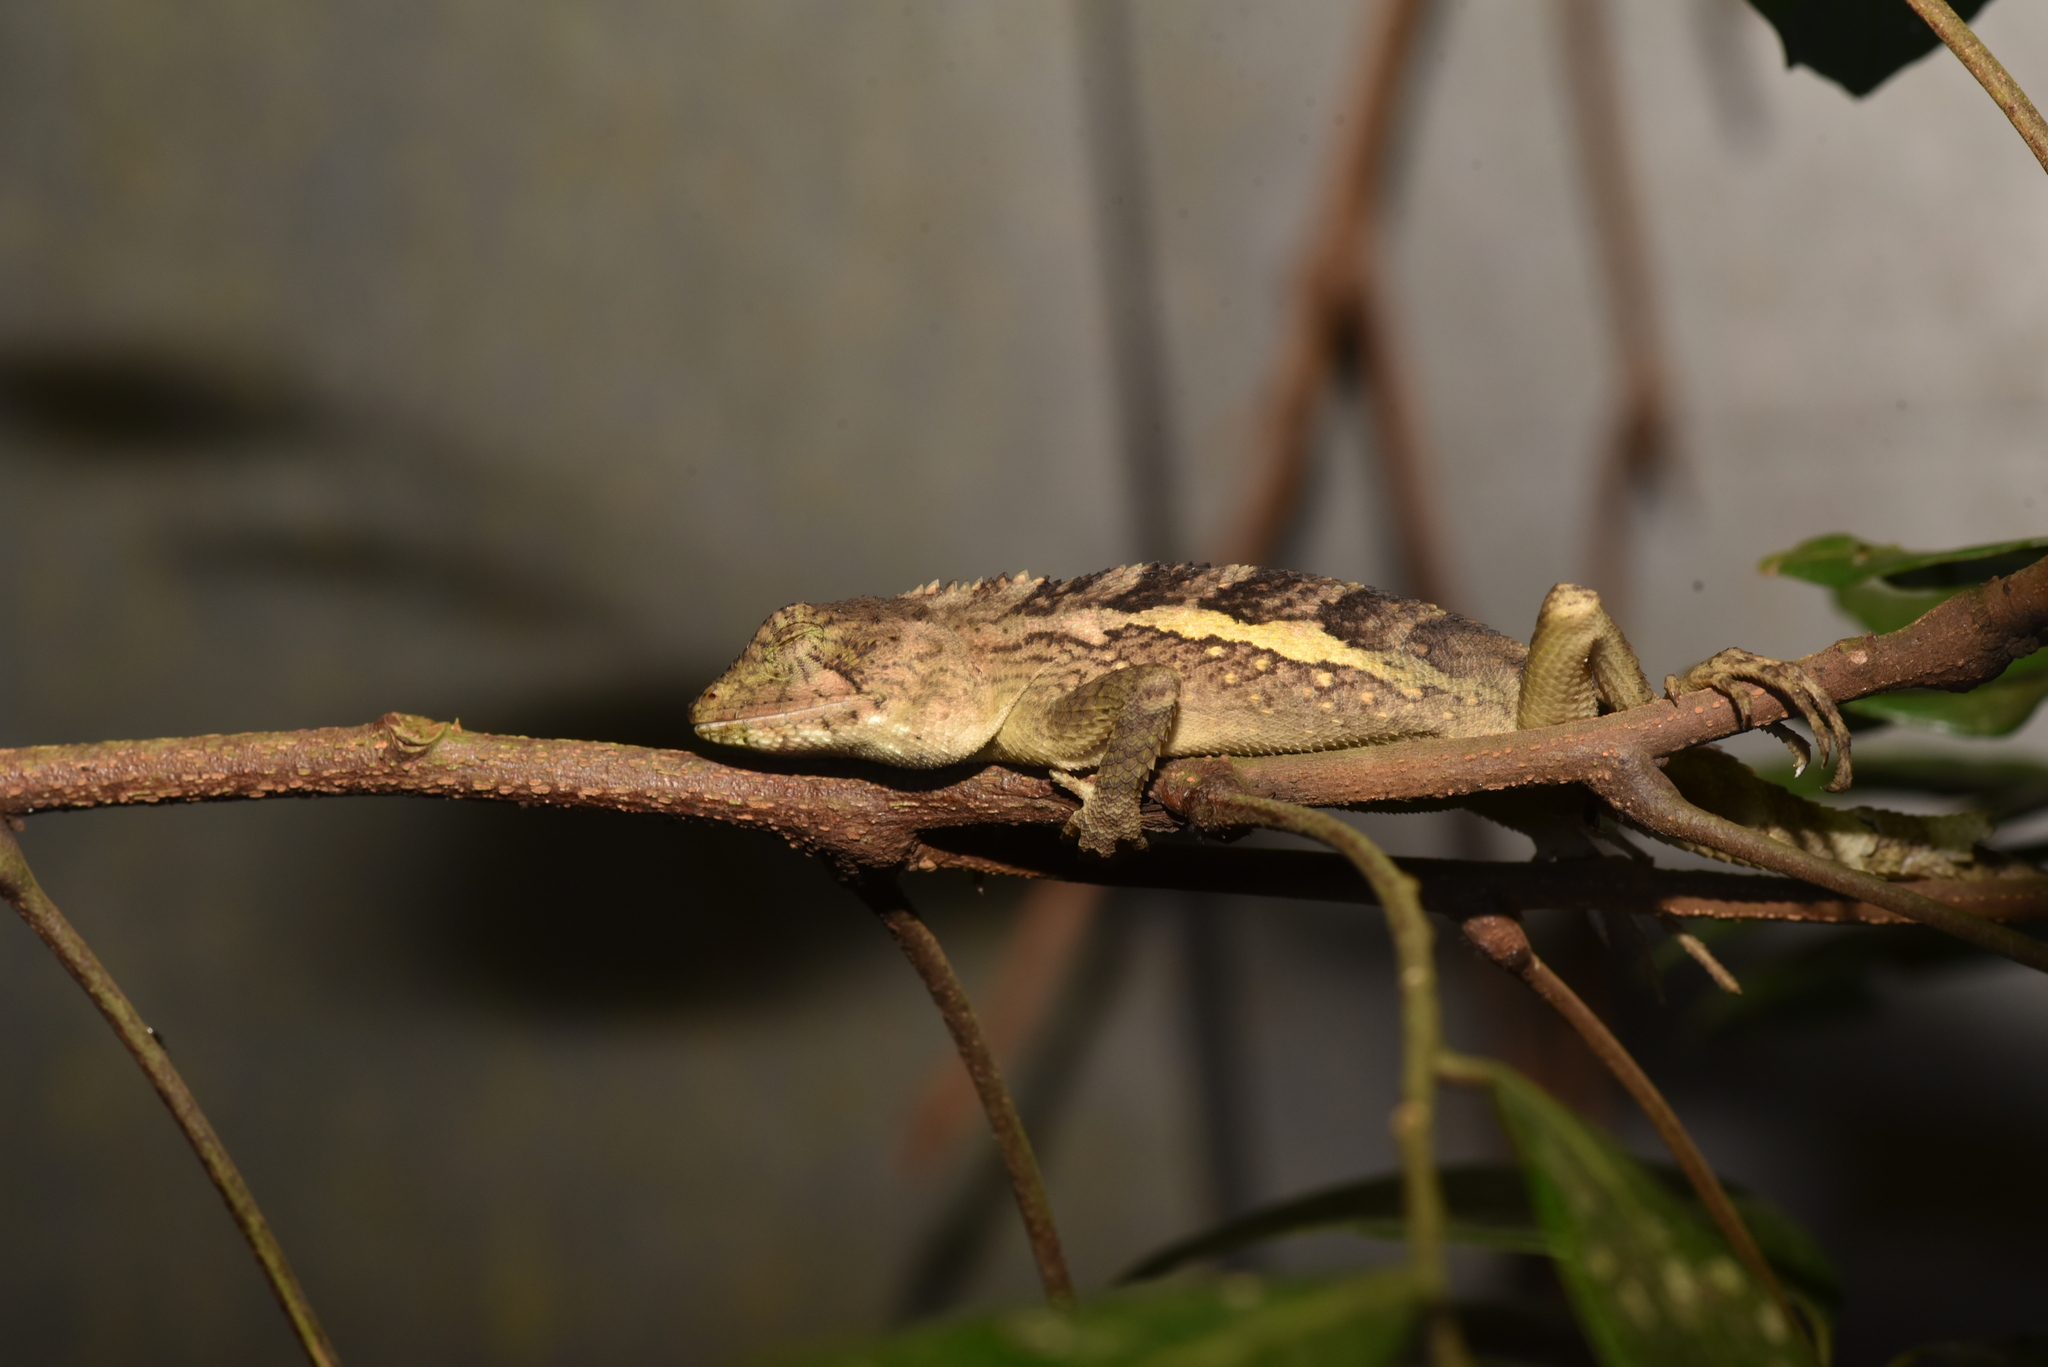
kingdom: Animalia
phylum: Chordata
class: Squamata
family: Agamidae
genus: Diploderma
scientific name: Diploderma swinhonis
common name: Taiwan japalure
